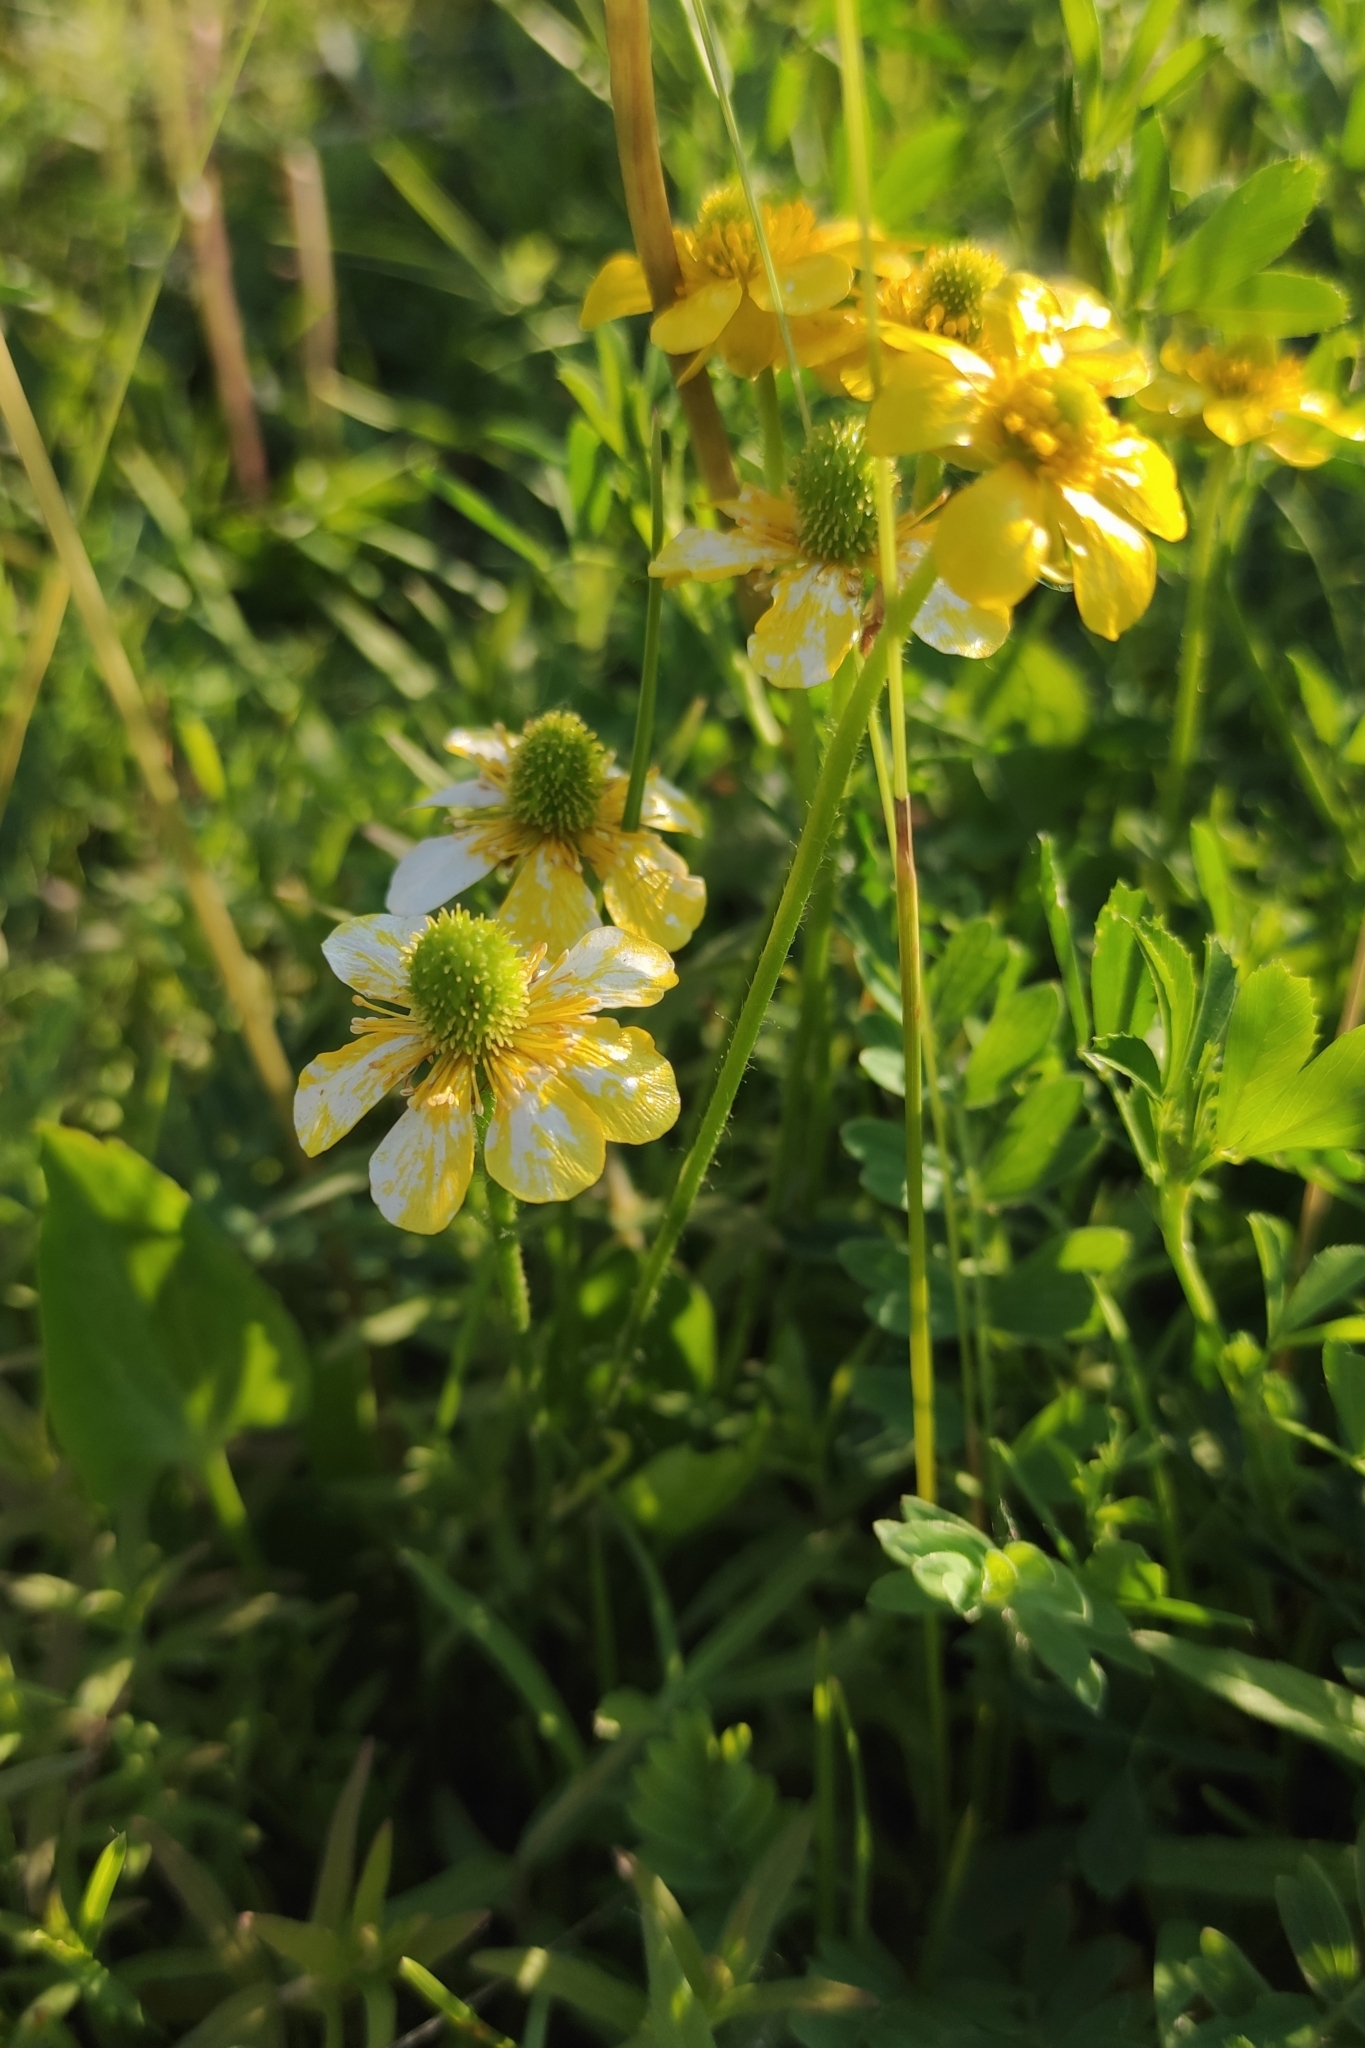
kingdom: Plantae
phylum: Tracheophyta
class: Magnoliopsida
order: Ranunculales
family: Ranunculaceae
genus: Halerpestes
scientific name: Halerpestes ruthenica
